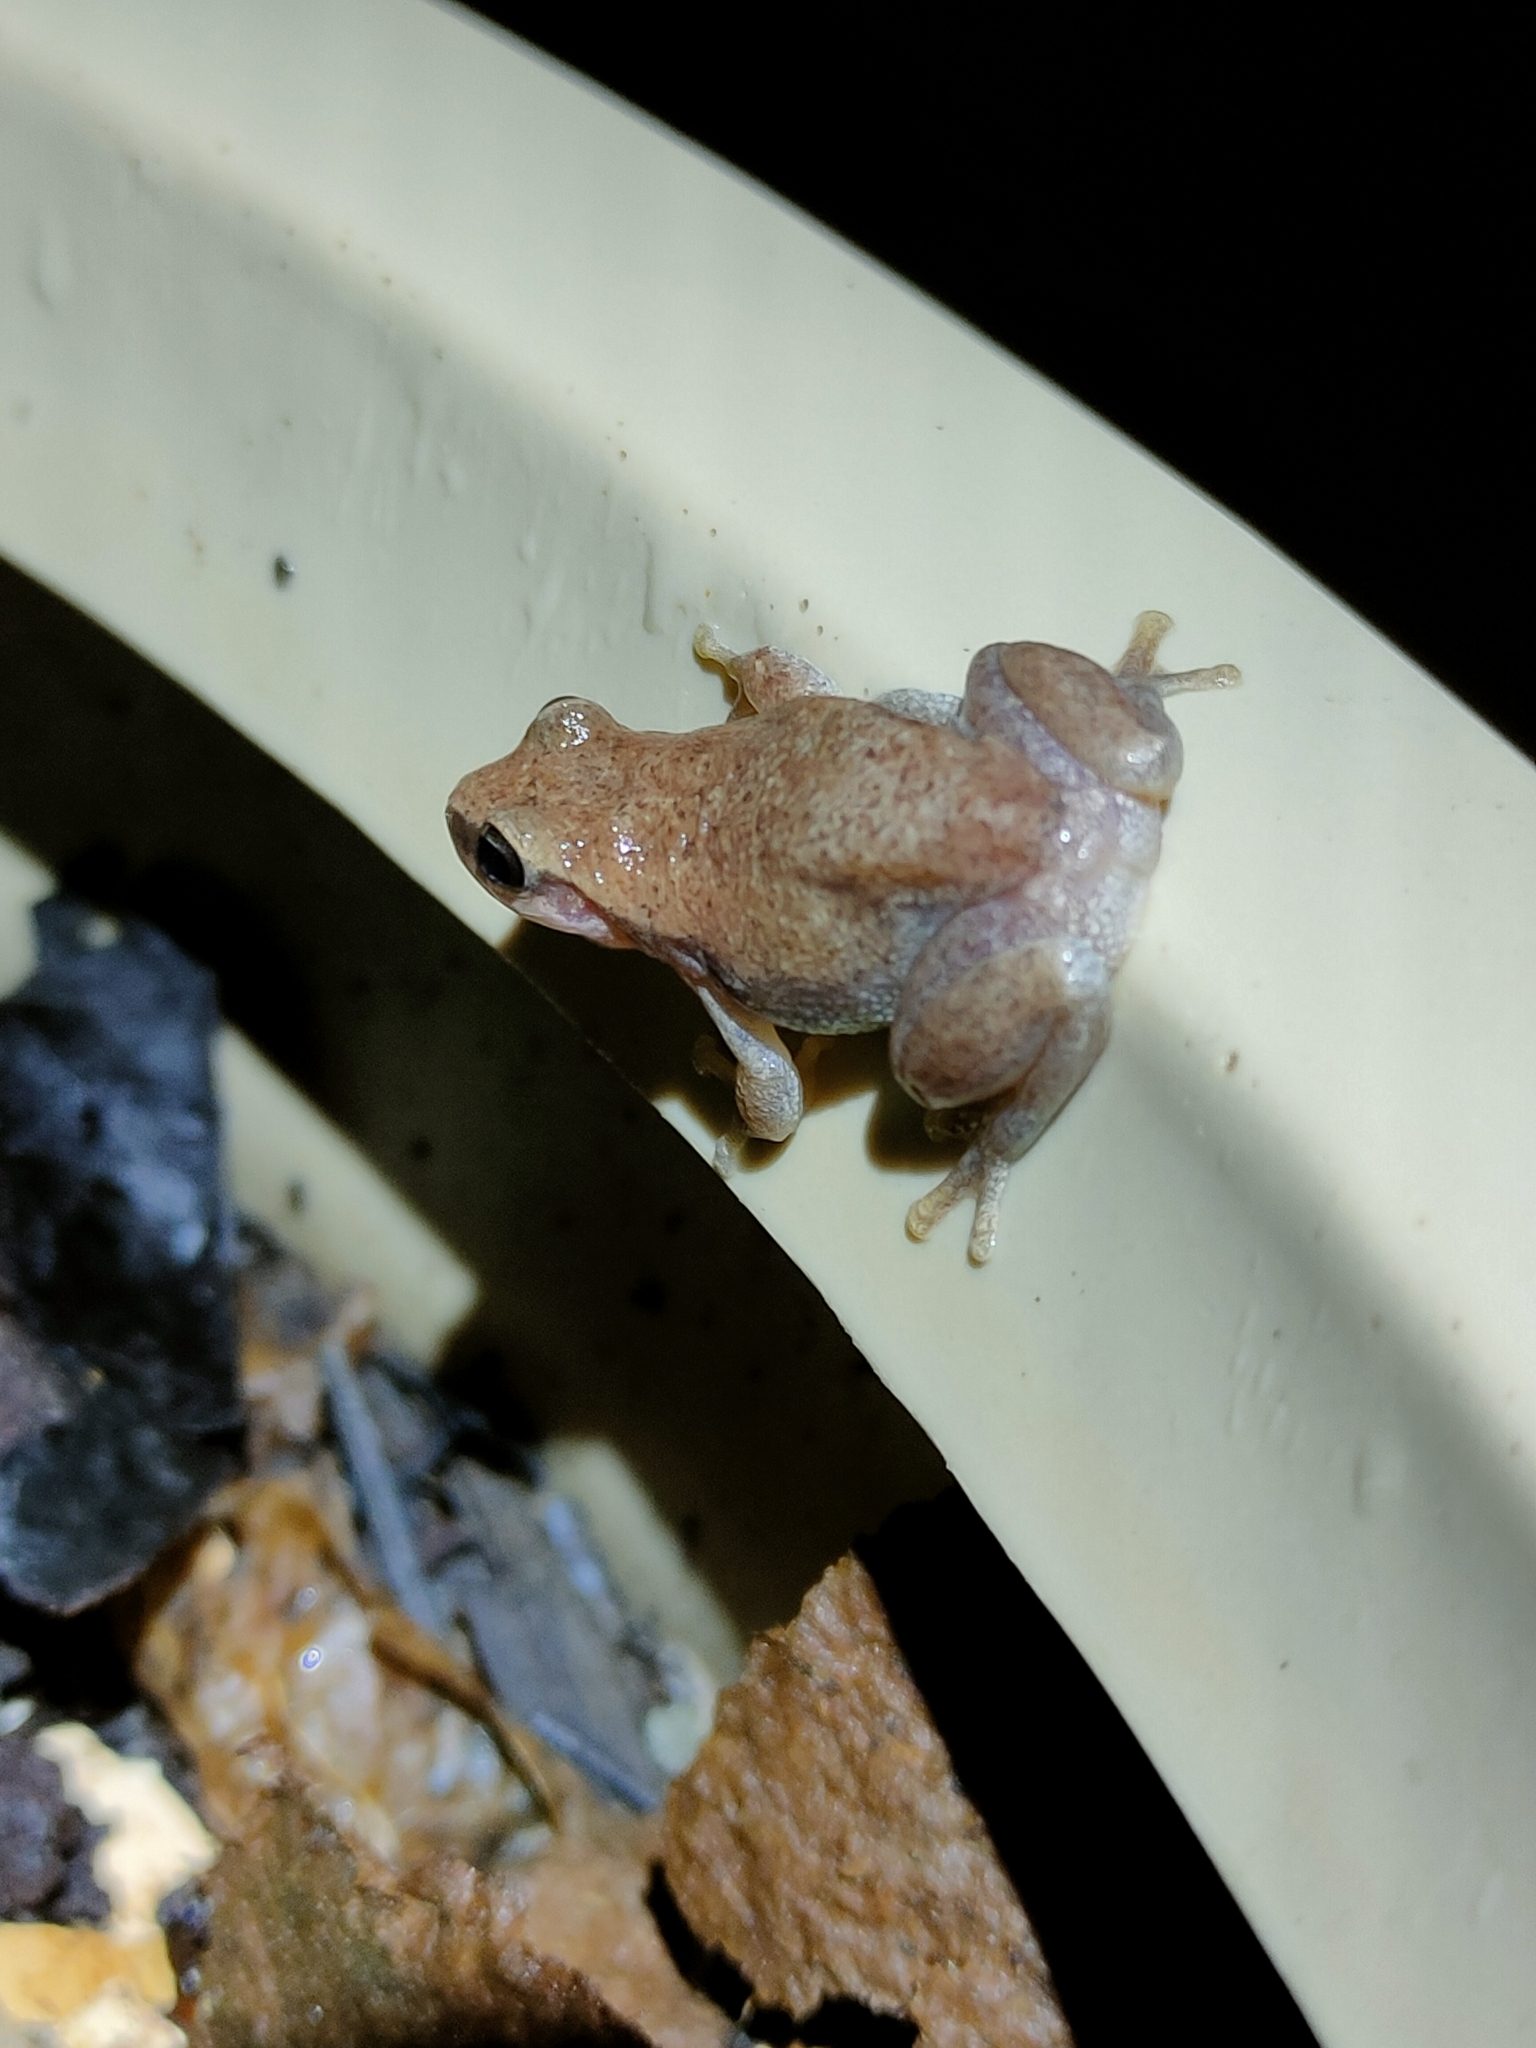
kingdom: Animalia
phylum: Chordata
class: Amphibia
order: Anura
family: Pelodryadidae
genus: Litoria
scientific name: Litoria rubella
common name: Desert tree frog
